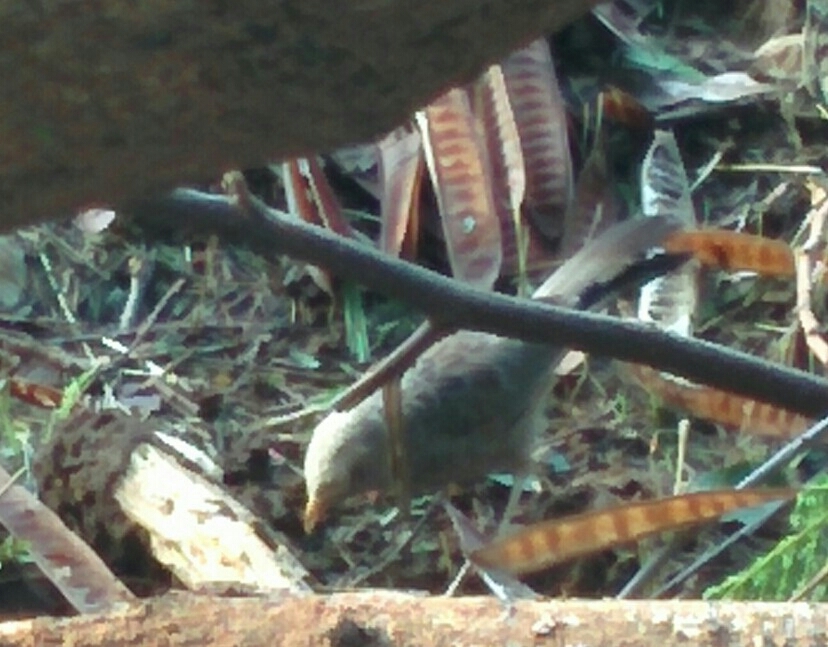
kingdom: Animalia
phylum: Chordata
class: Aves
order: Passeriformes
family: Leiothrichidae
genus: Turdoides
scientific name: Turdoides affinis
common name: Yellow-billed babbler
